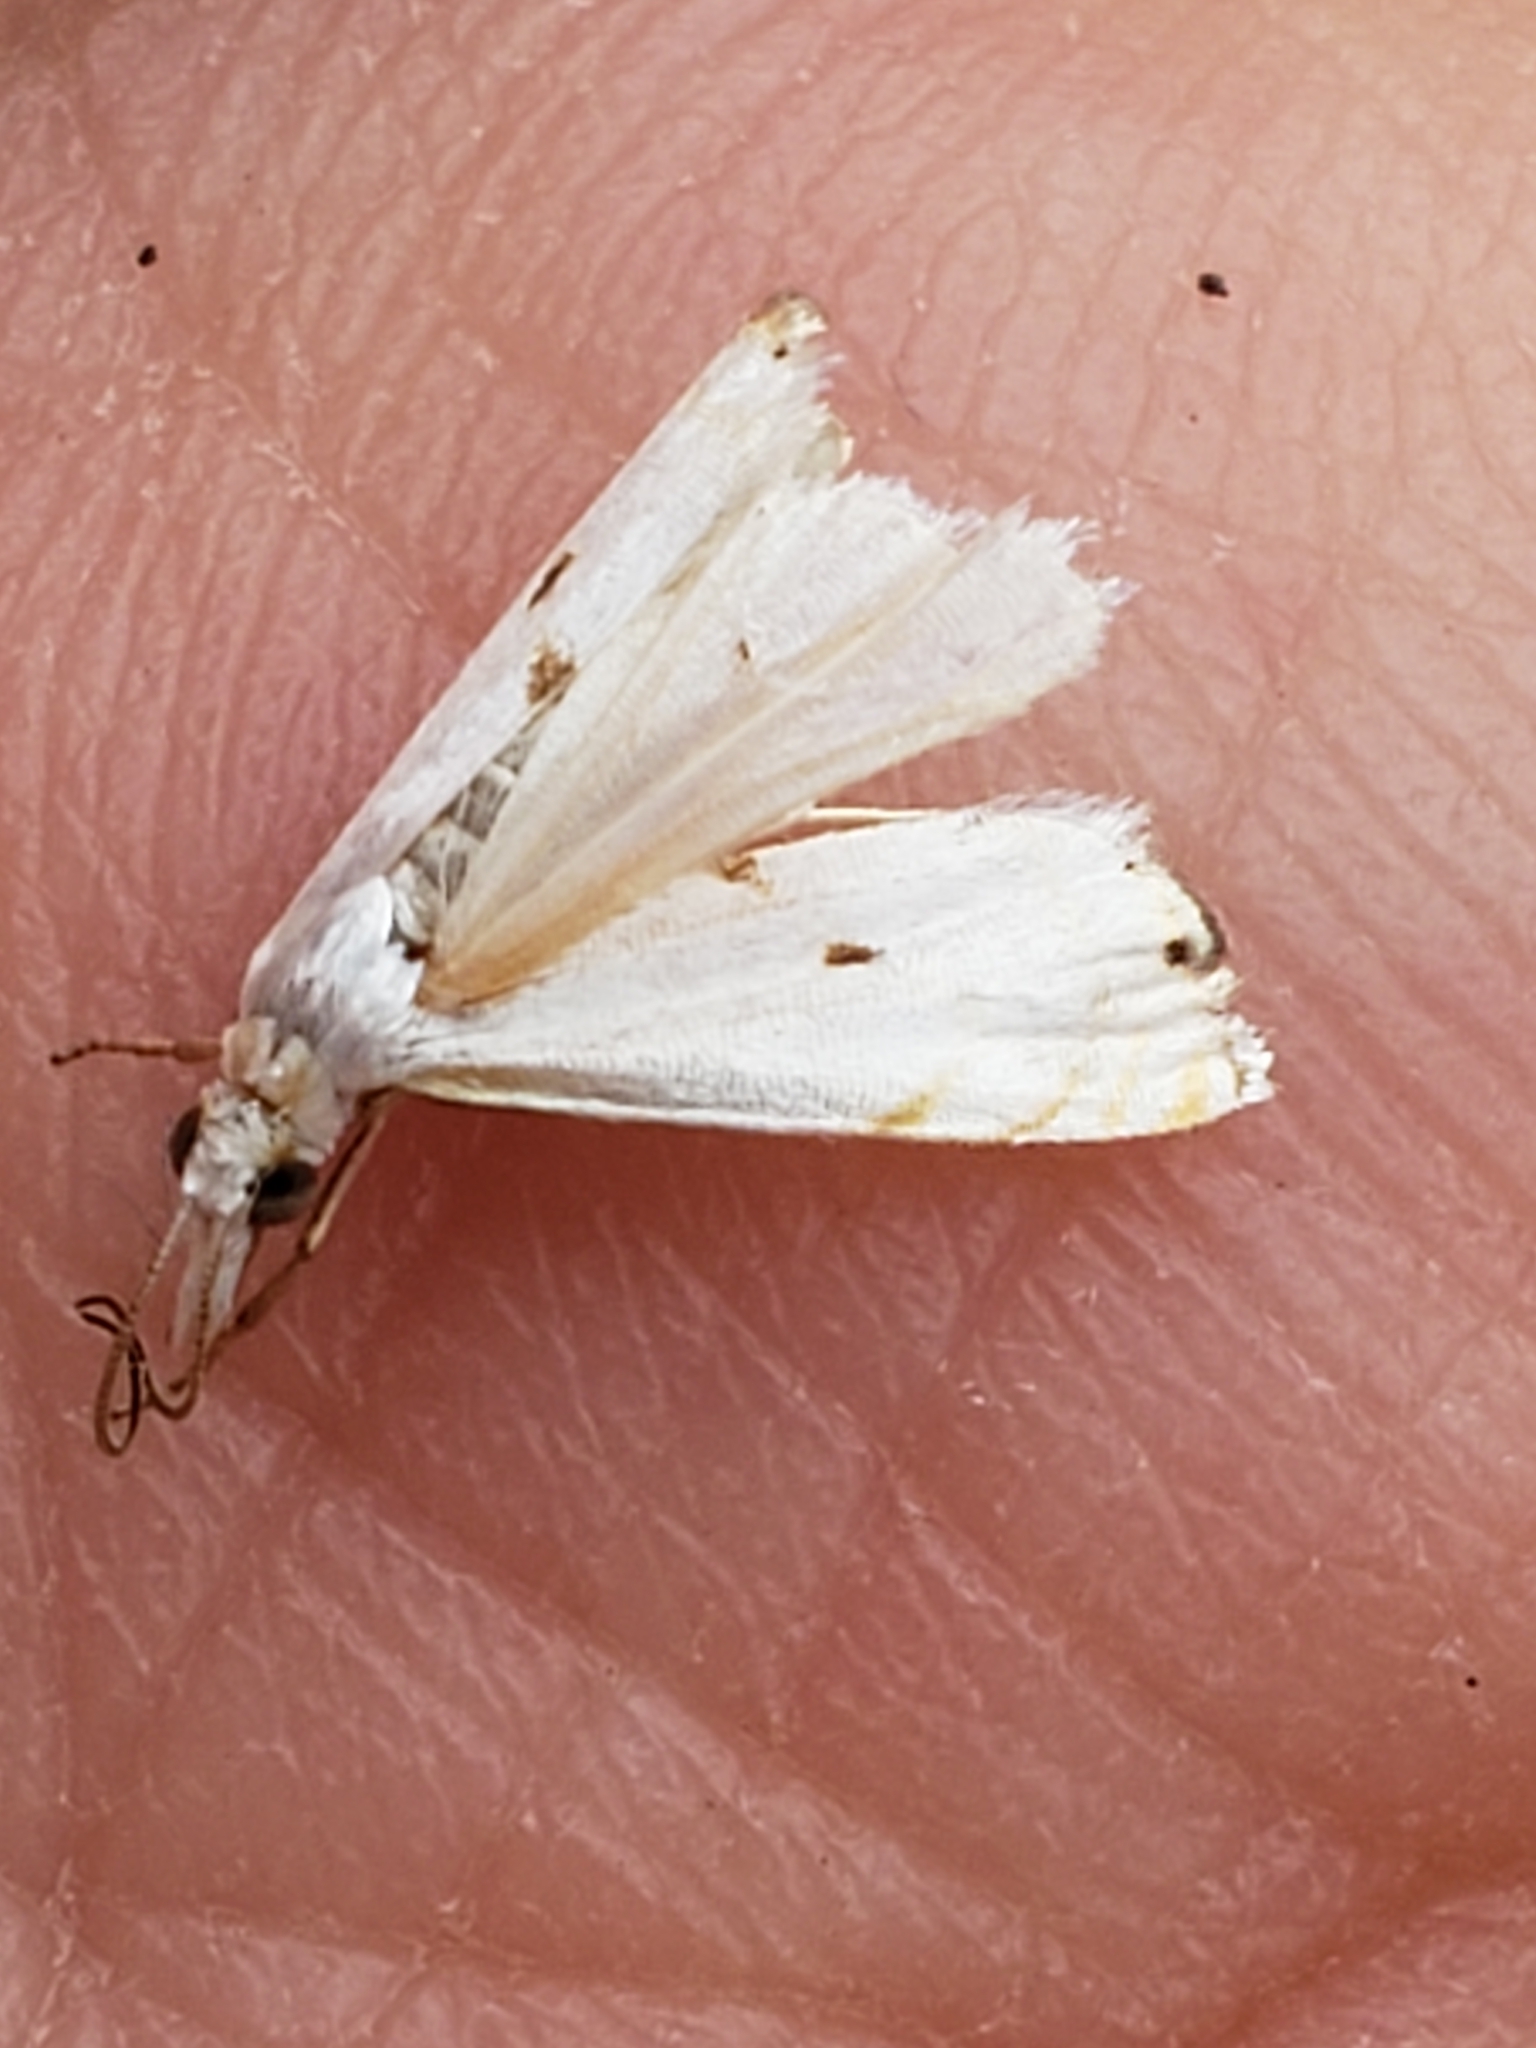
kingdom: Animalia
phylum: Arthropoda
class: Insecta
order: Lepidoptera
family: Crambidae
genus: Microcrambus
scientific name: Microcrambus biguttellus
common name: Gold-stripe grass-veneer moth
